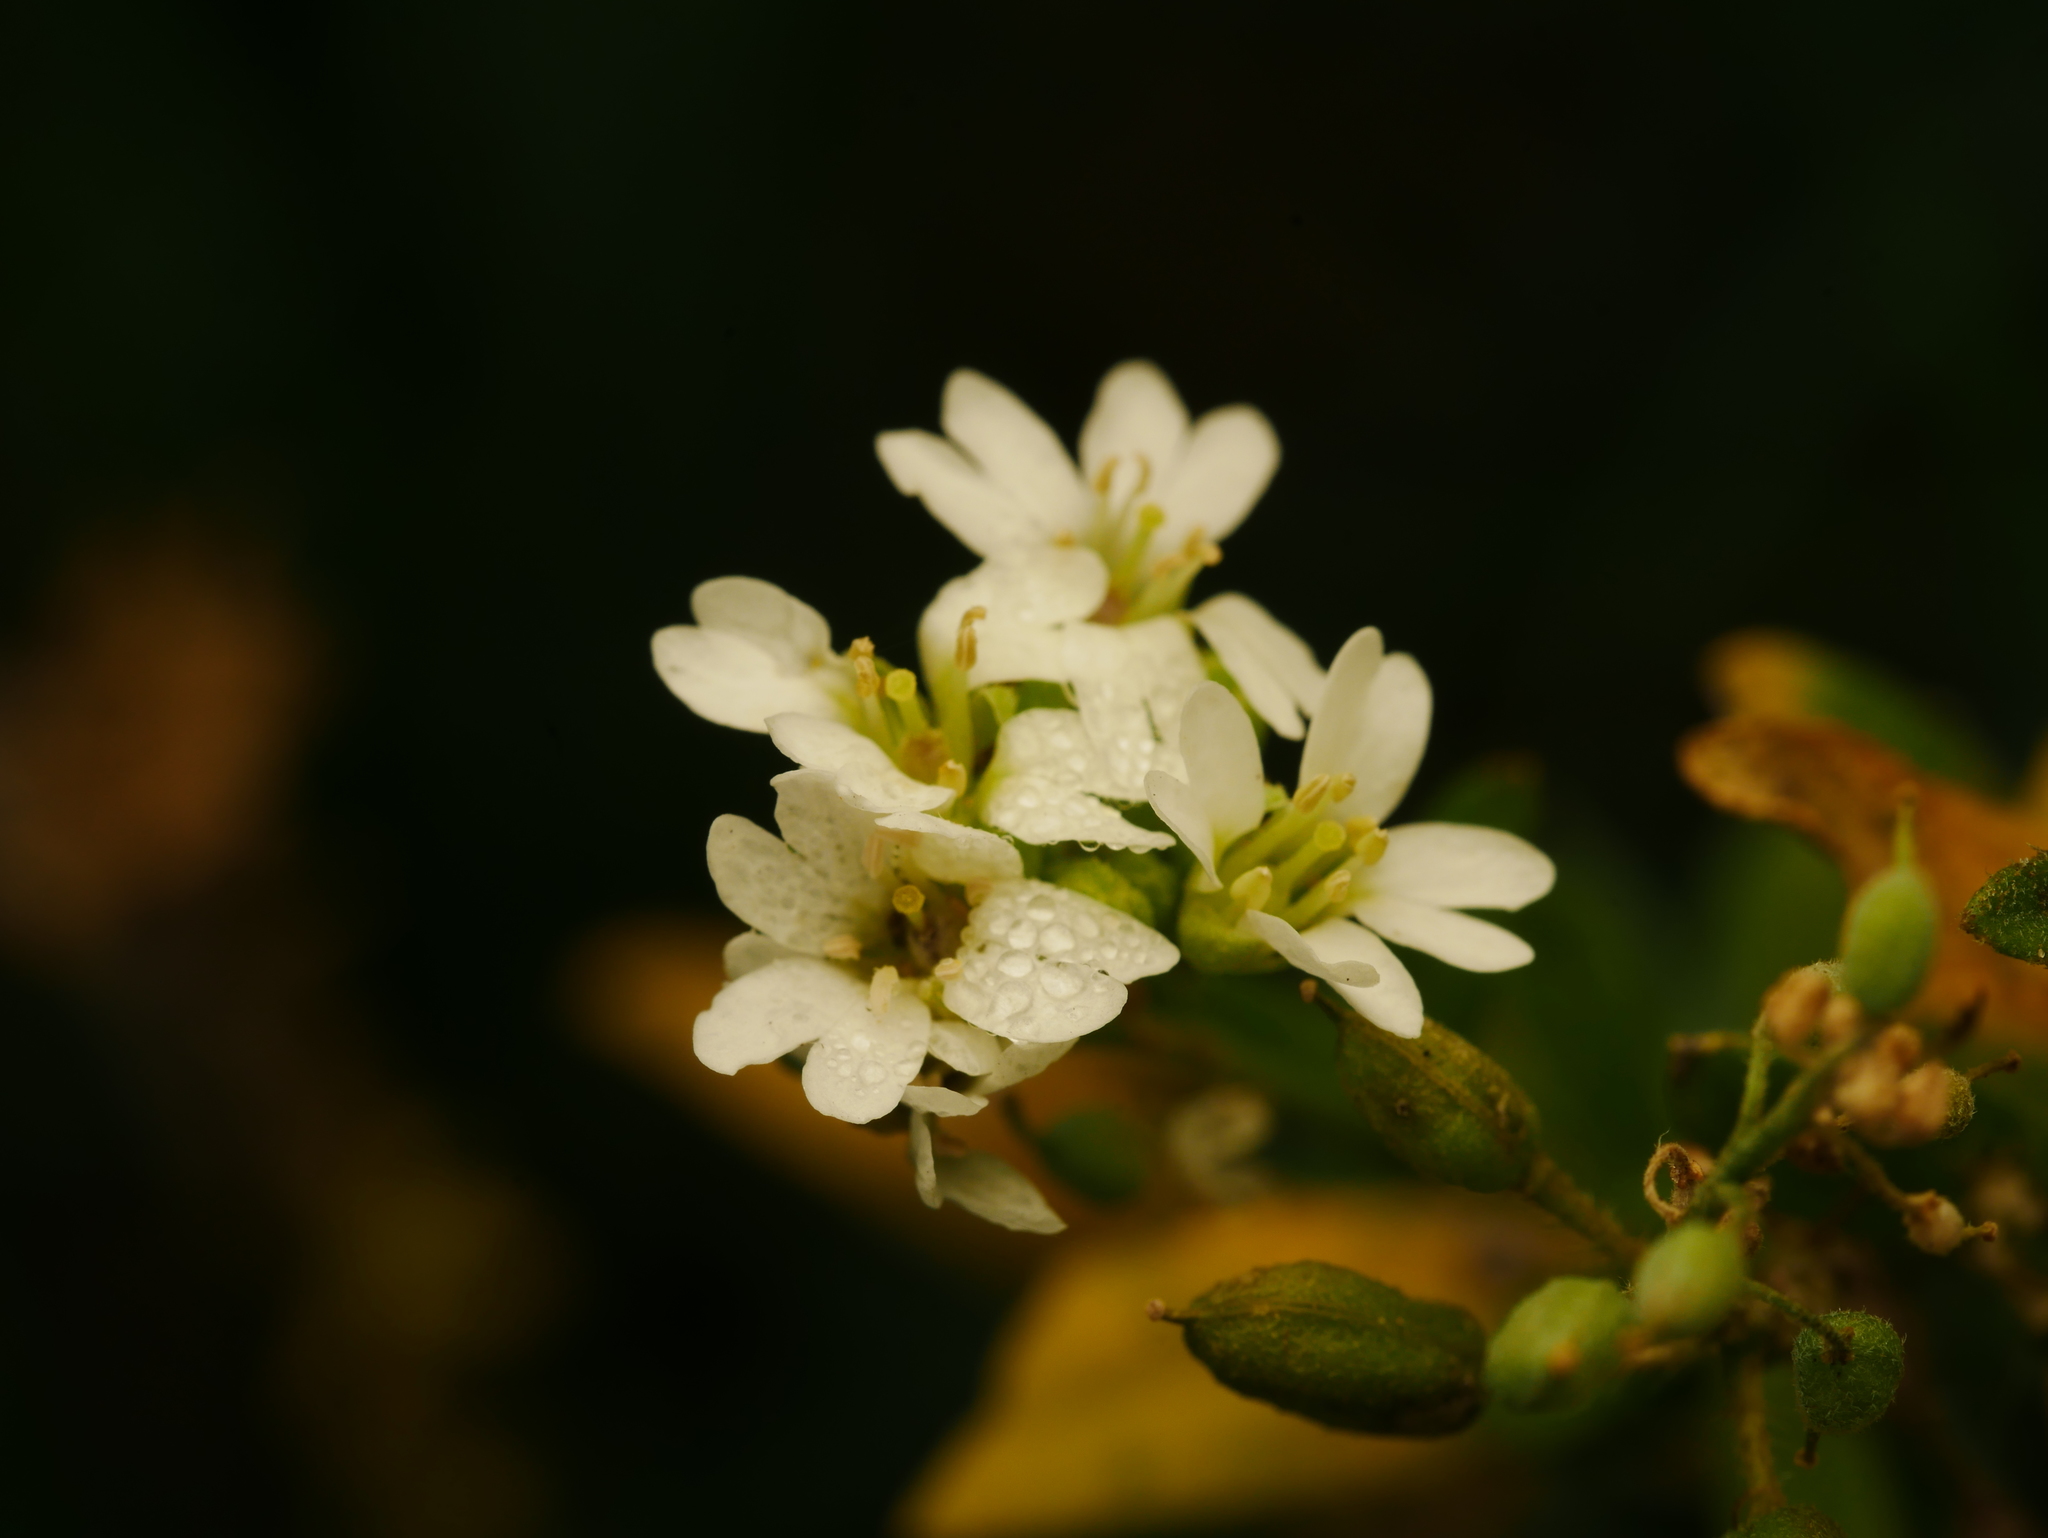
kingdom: Plantae
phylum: Tracheophyta
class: Magnoliopsida
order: Brassicales
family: Brassicaceae
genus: Berteroa
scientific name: Berteroa incana
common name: Hoary alison
